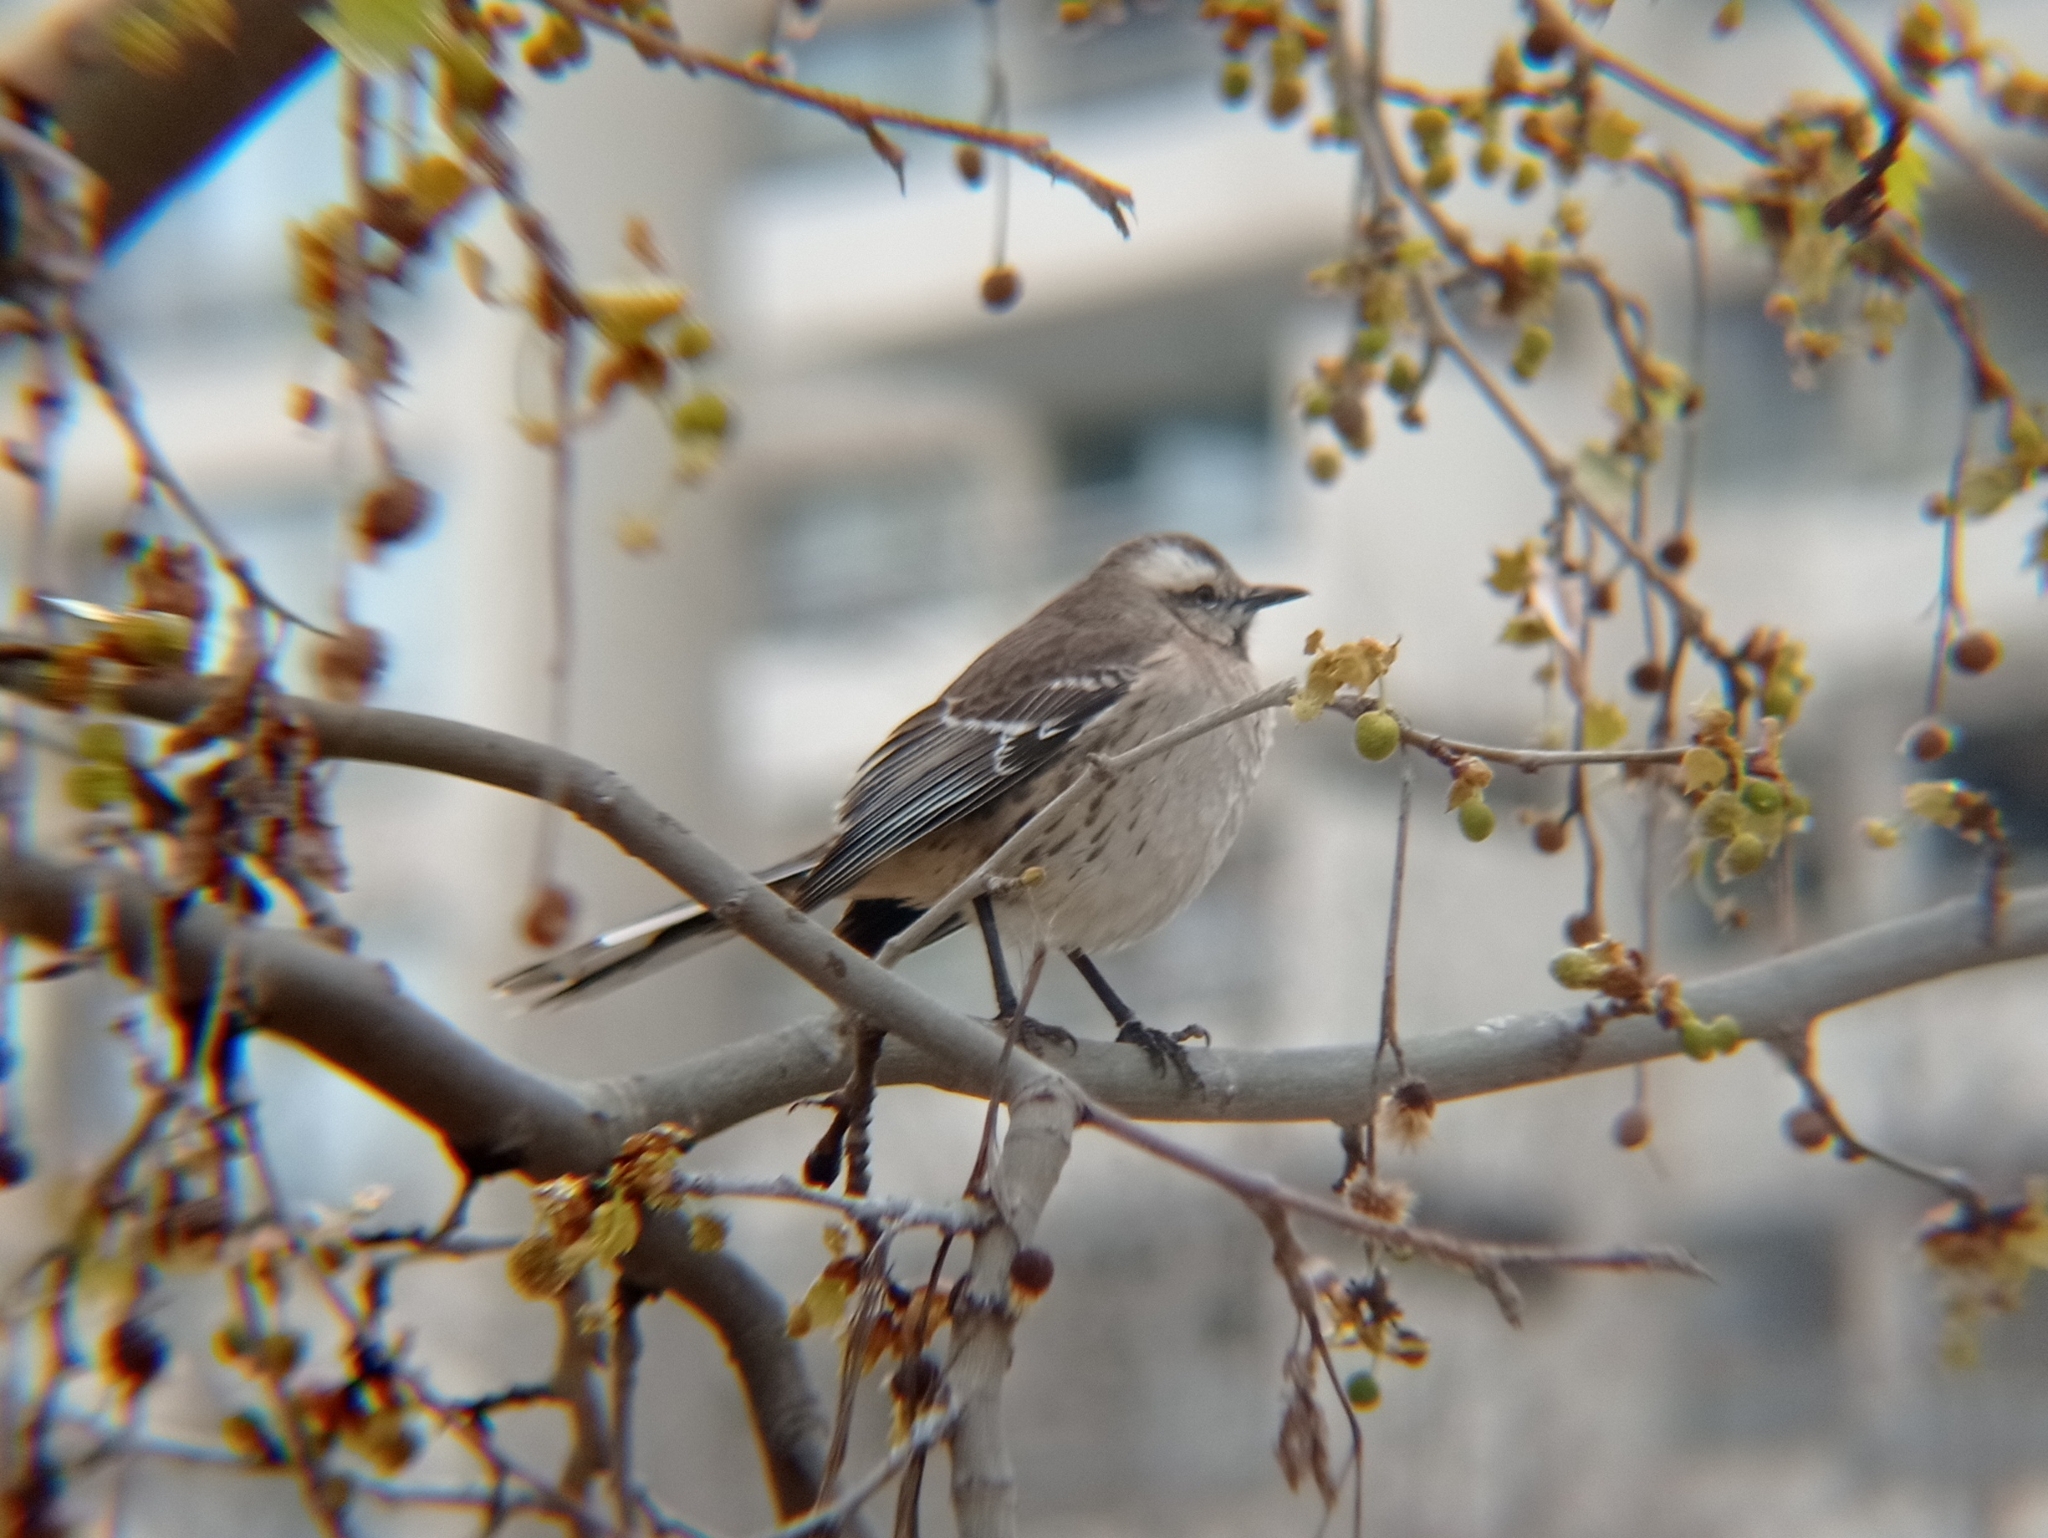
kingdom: Animalia
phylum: Chordata
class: Aves
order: Passeriformes
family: Mimidae
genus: Mimus
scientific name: Mimus thenca
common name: Chilean mockingbird
